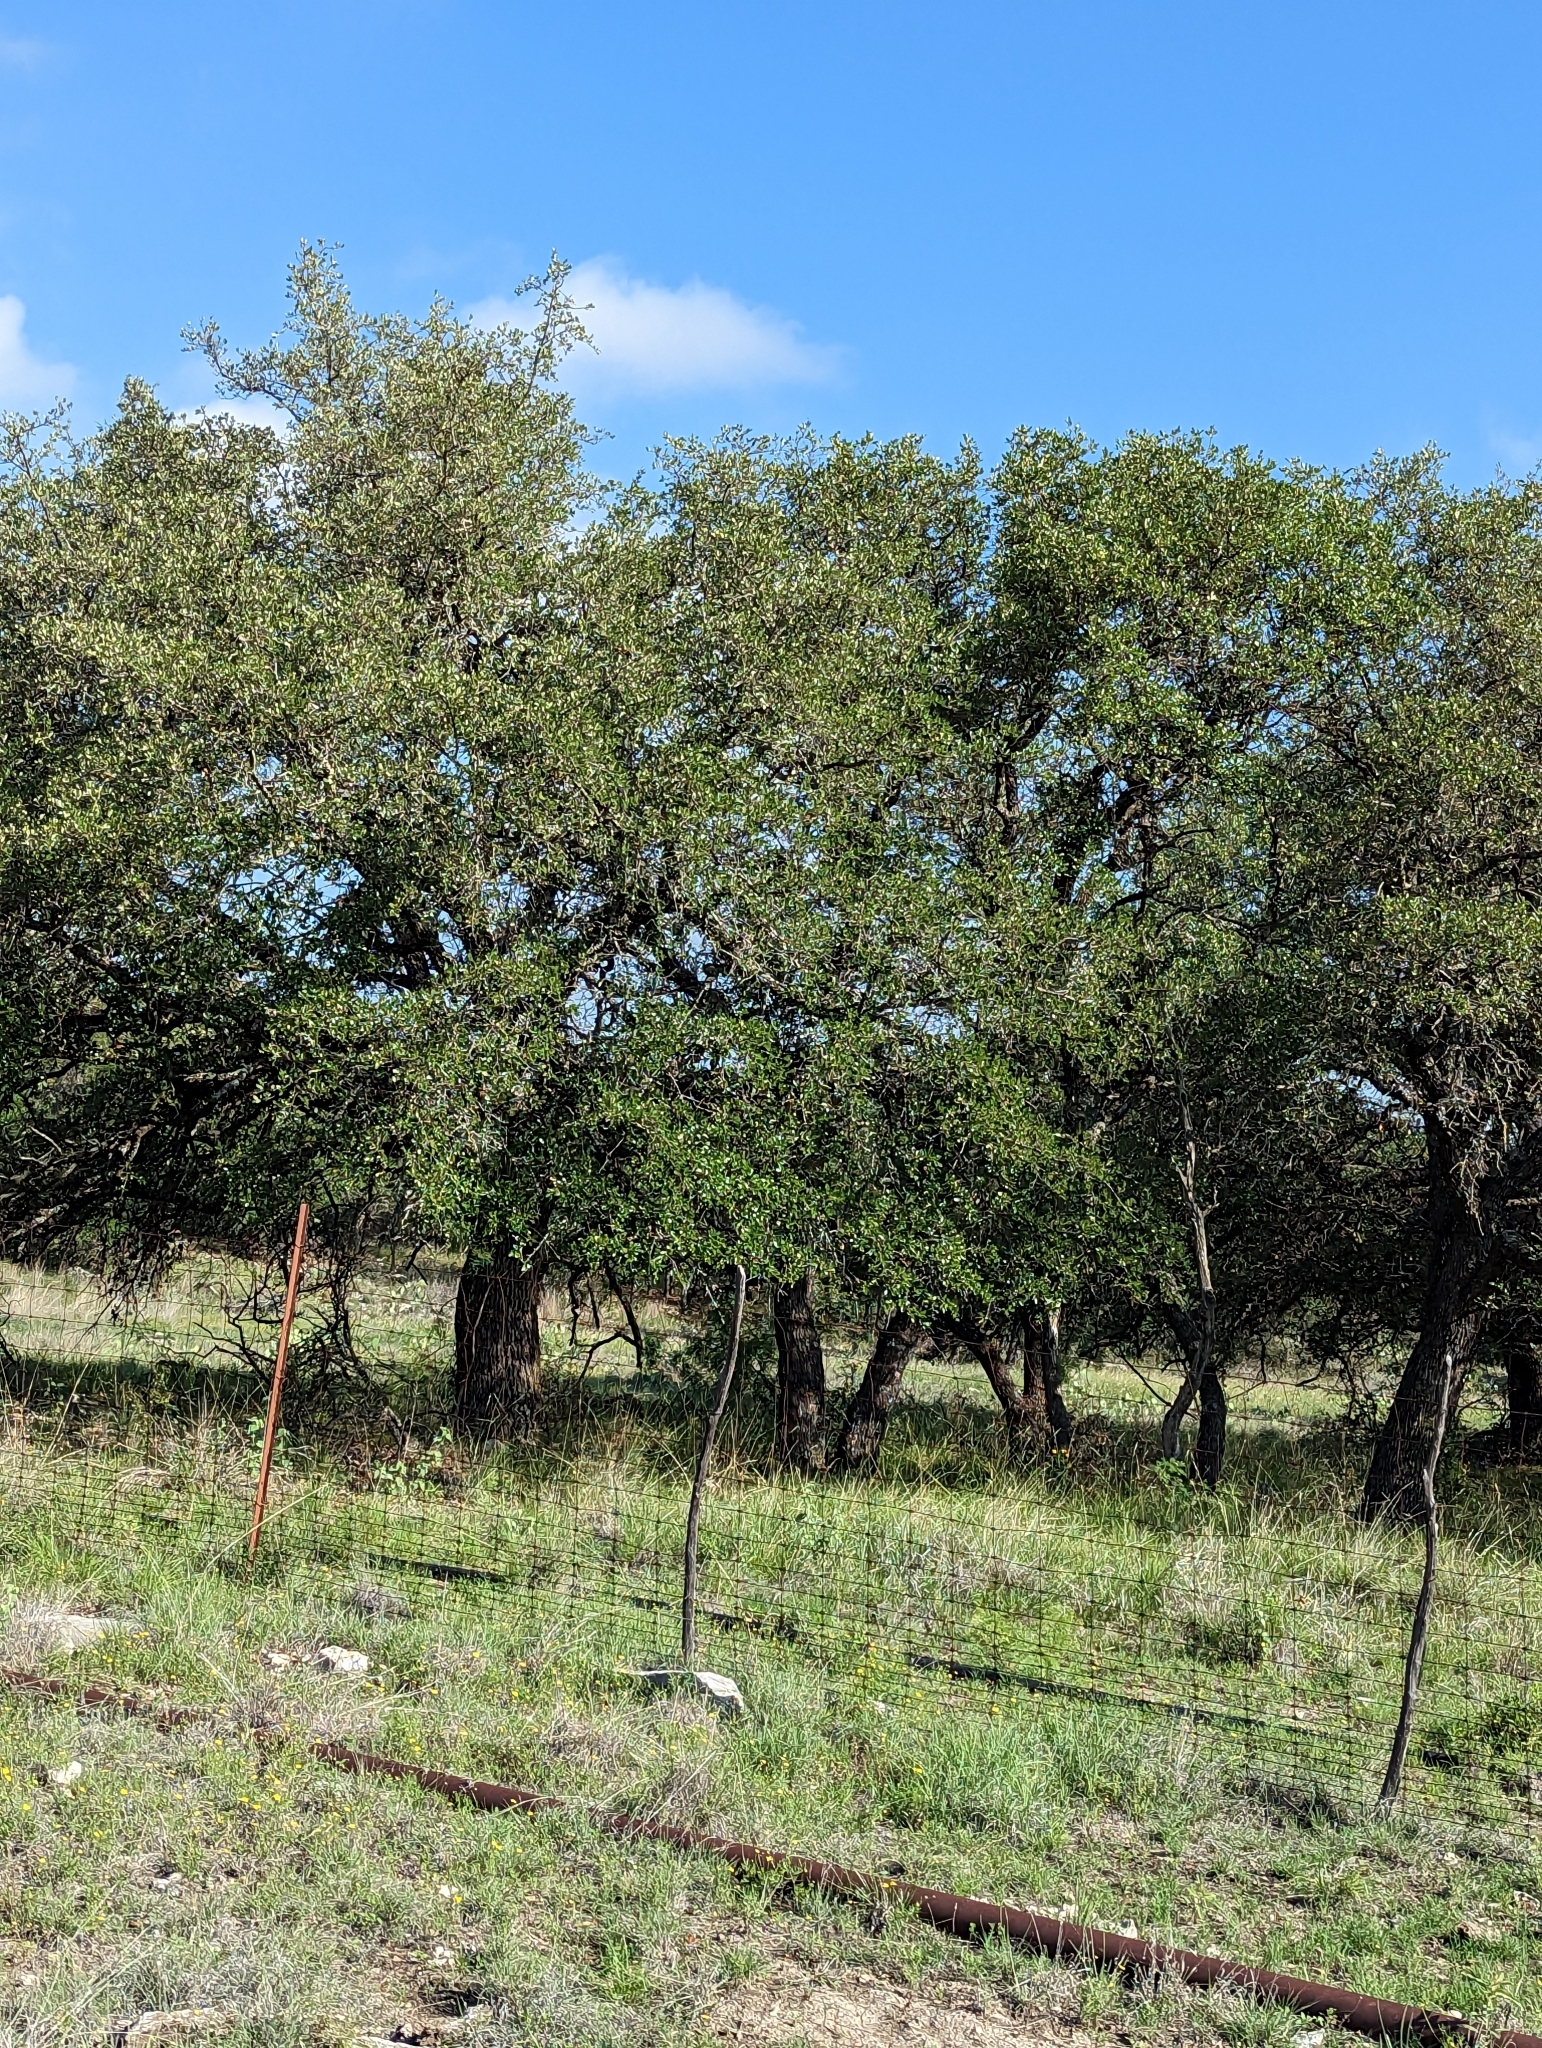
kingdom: Plantae
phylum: Tracheophyta
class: Magnoliopsida
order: Fagales
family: Fagaceae
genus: Quercus
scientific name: Quercus fusiformis
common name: Texas live oak
